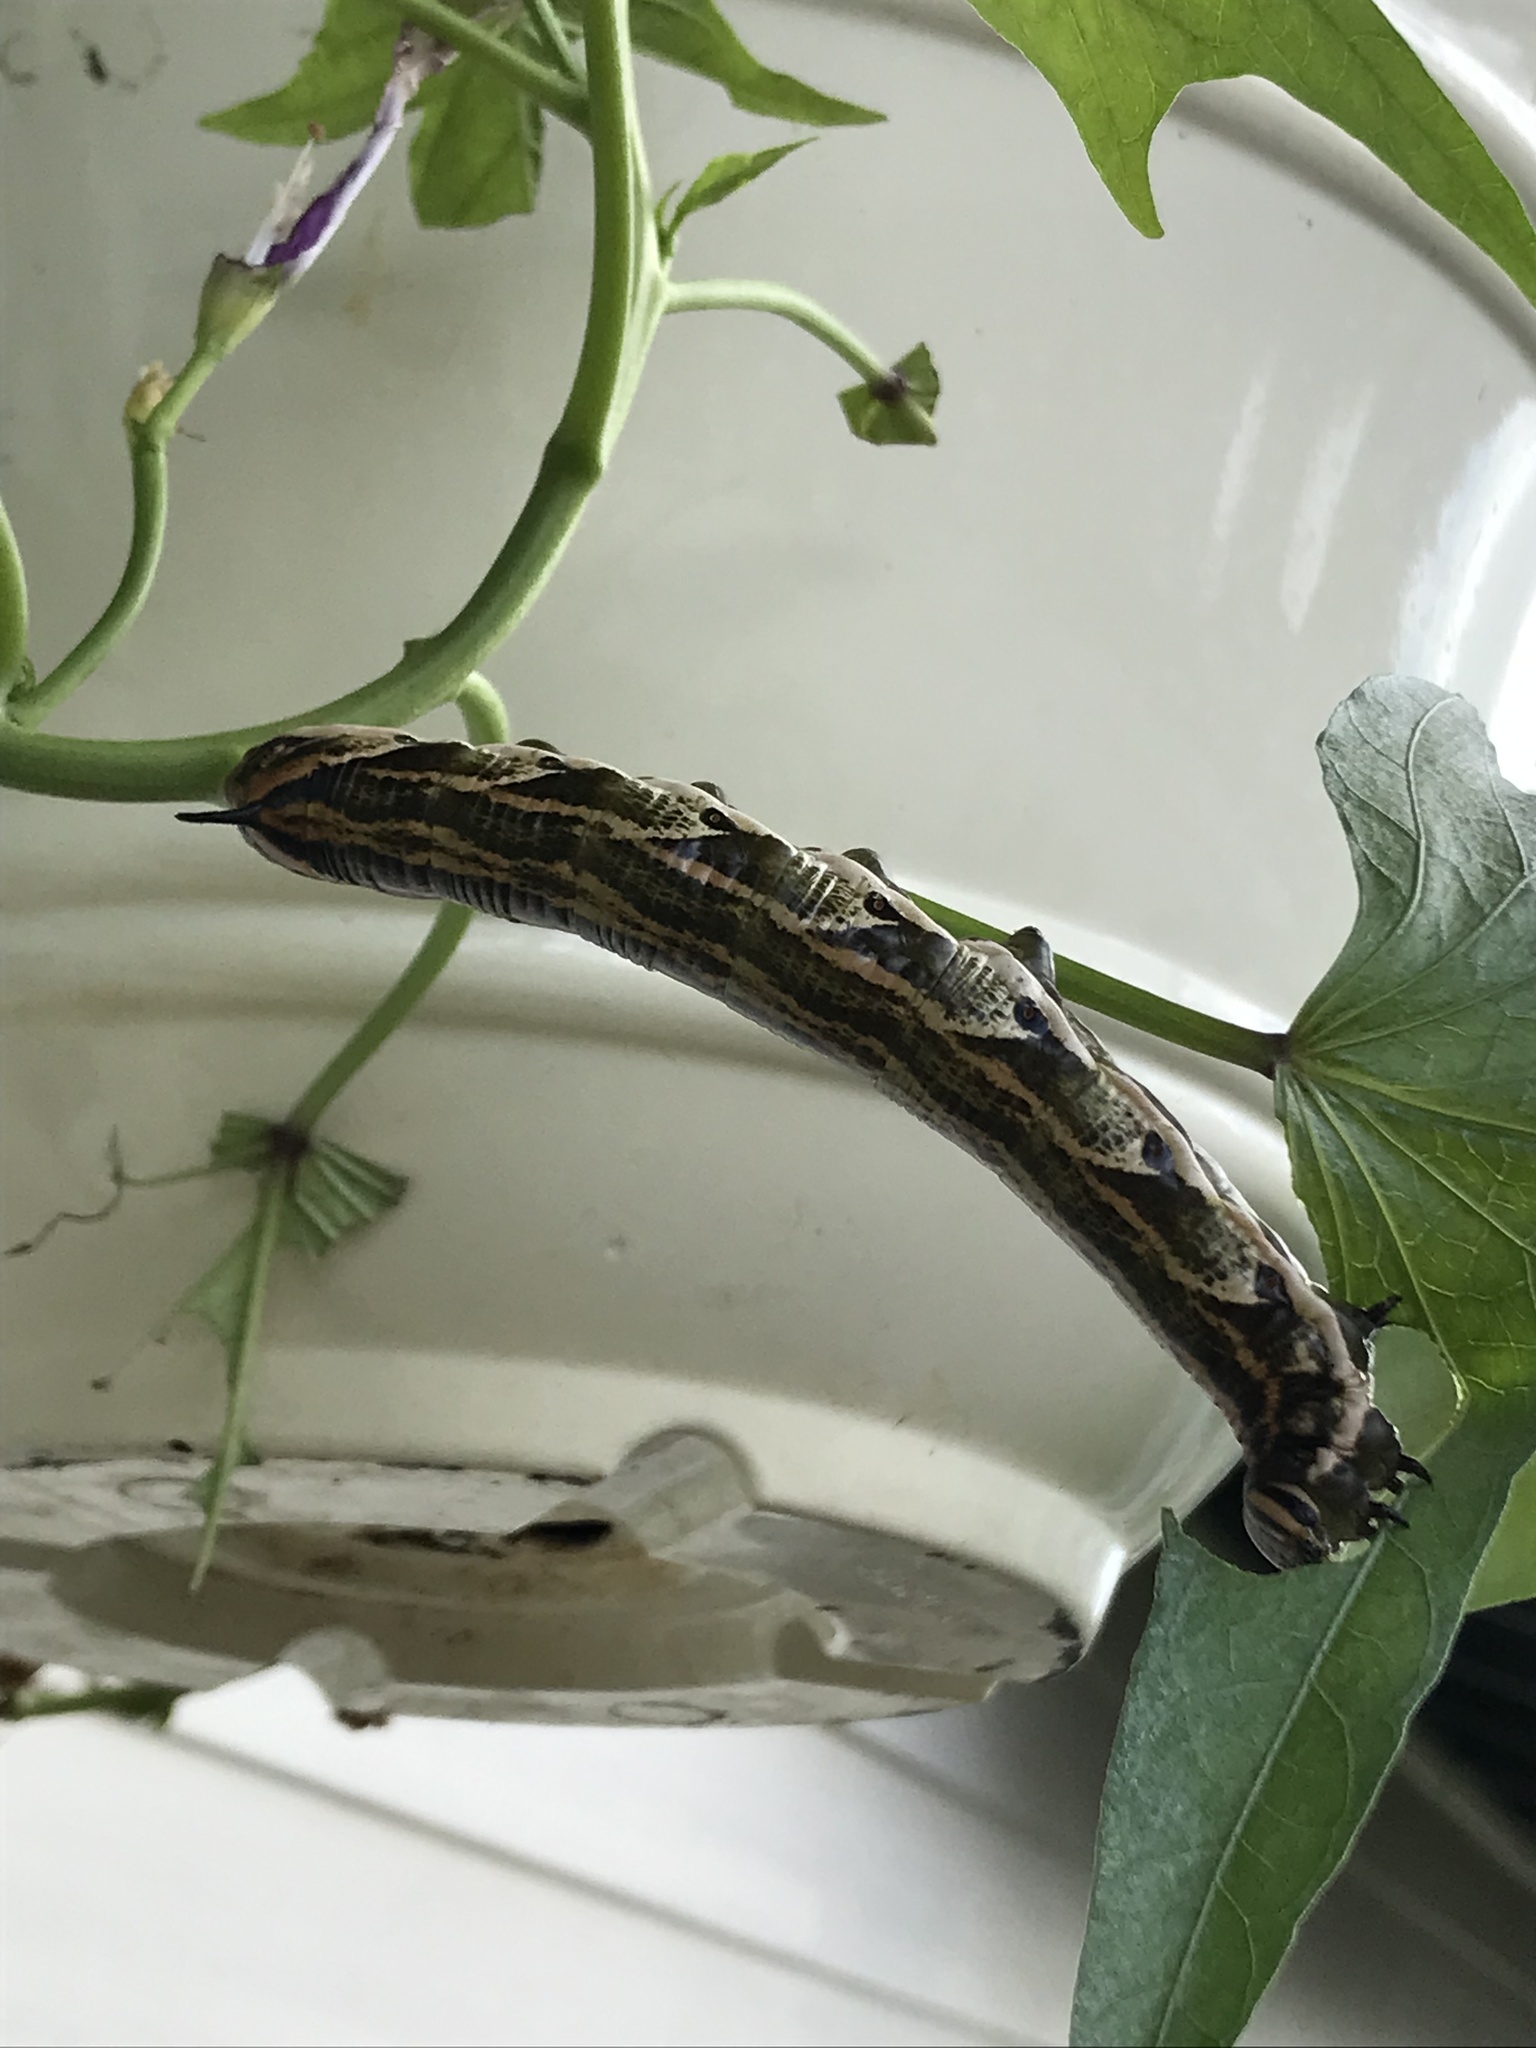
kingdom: Animalia
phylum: Arthropoda
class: Insecta
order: Lepidoptera
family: Sphingidae
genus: Agrius
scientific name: Agrius cingulata
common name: Pink-spotted hawkmoth
